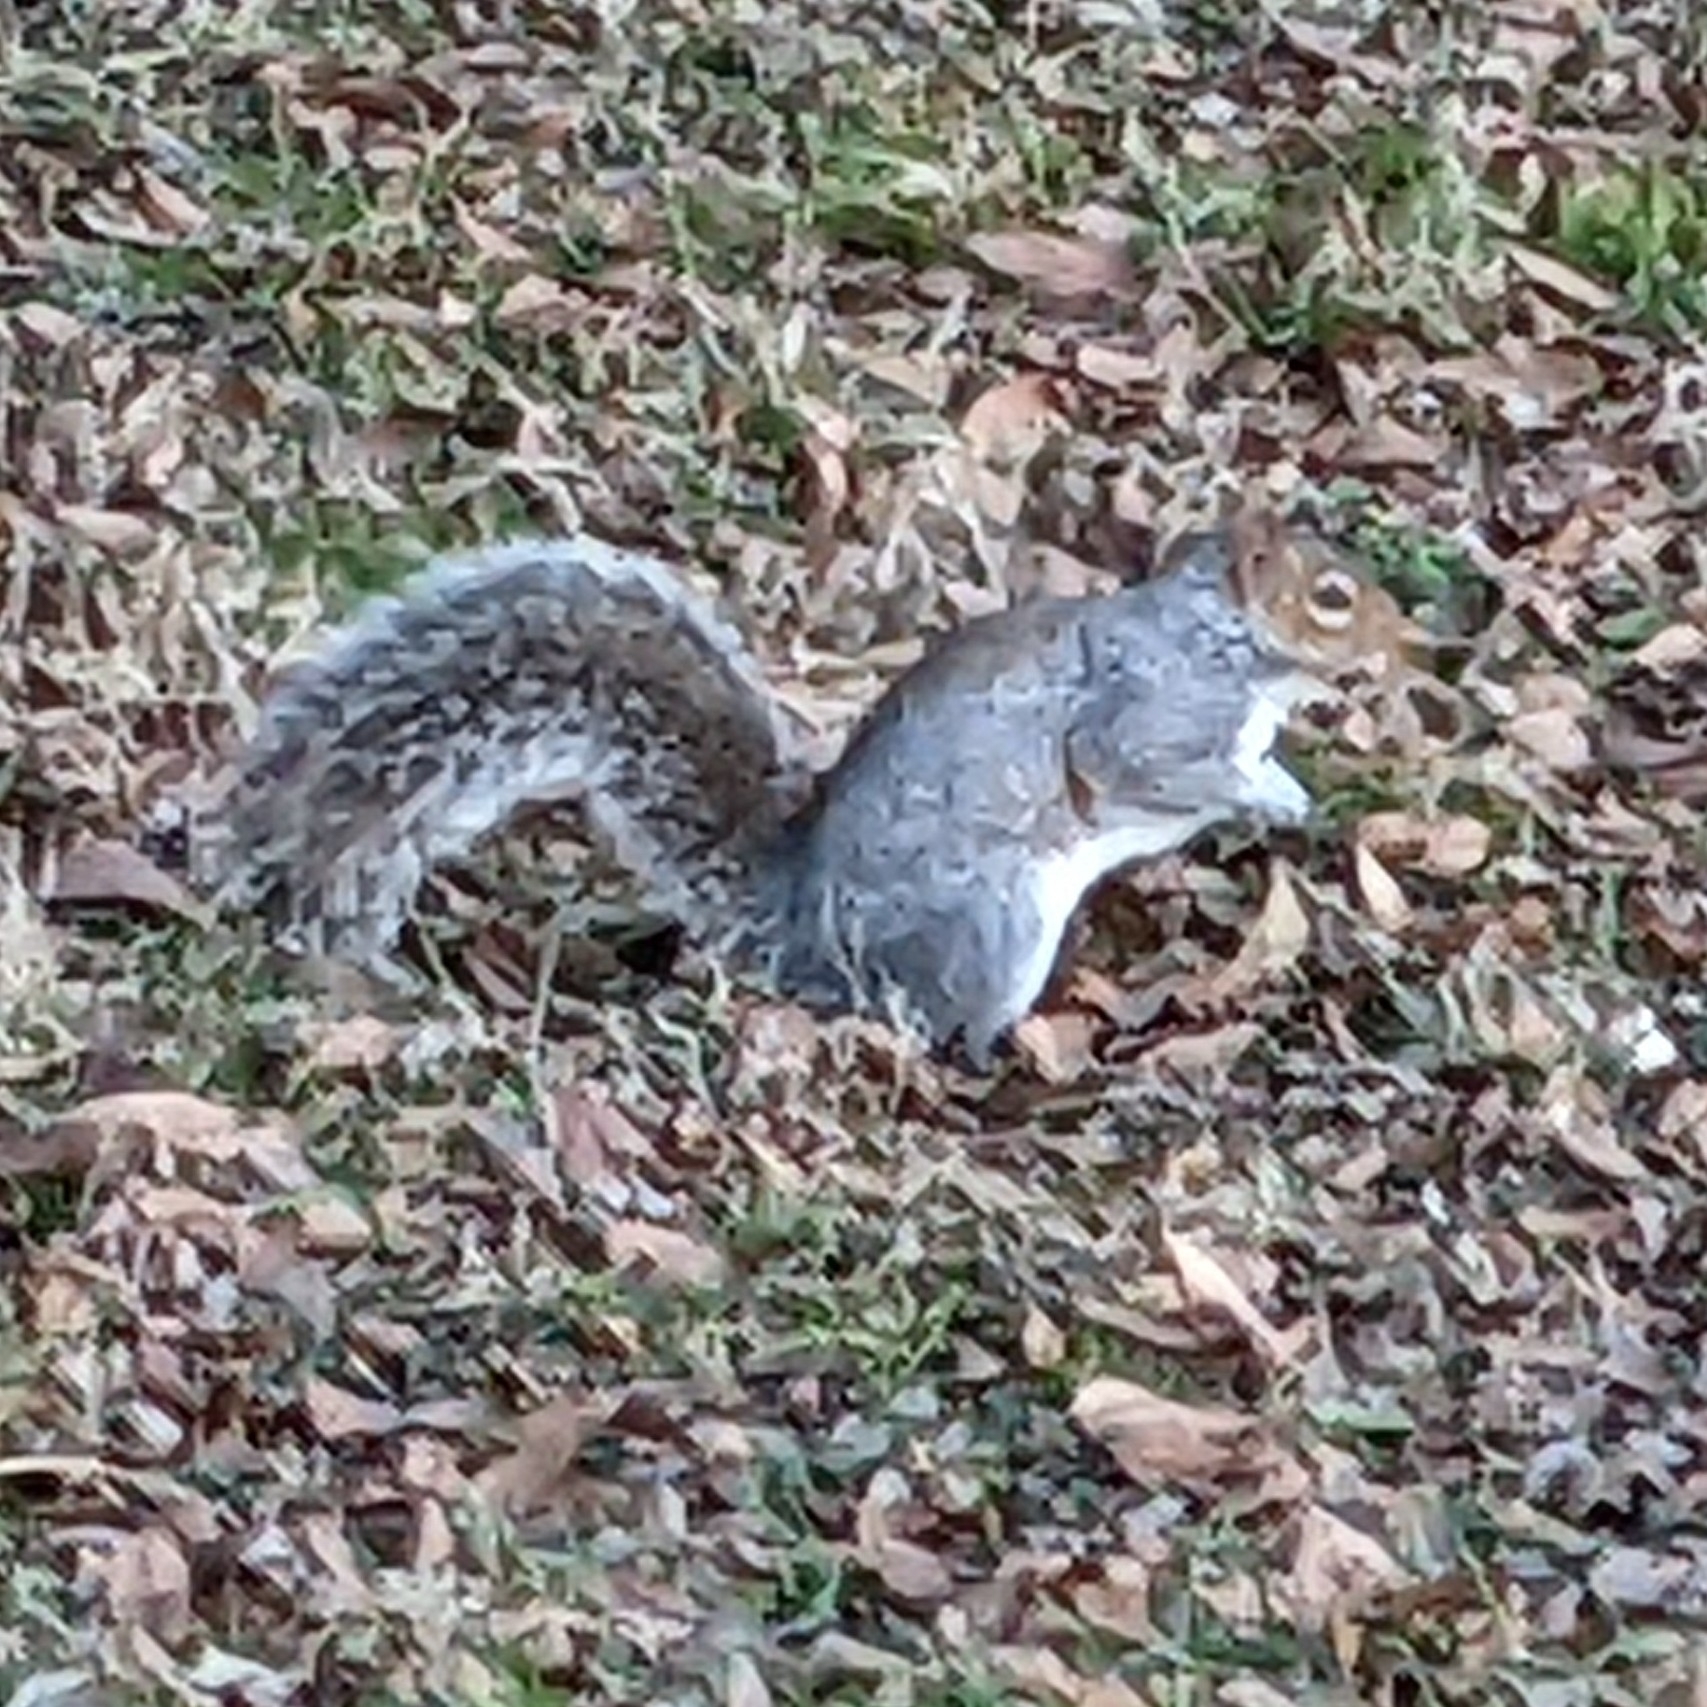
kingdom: Animalia
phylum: Chordata
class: Mammalia
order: Rodentia
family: Sciuridae
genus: Sciurus
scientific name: Sciurus carolinensis
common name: Eastern gray squirrel
